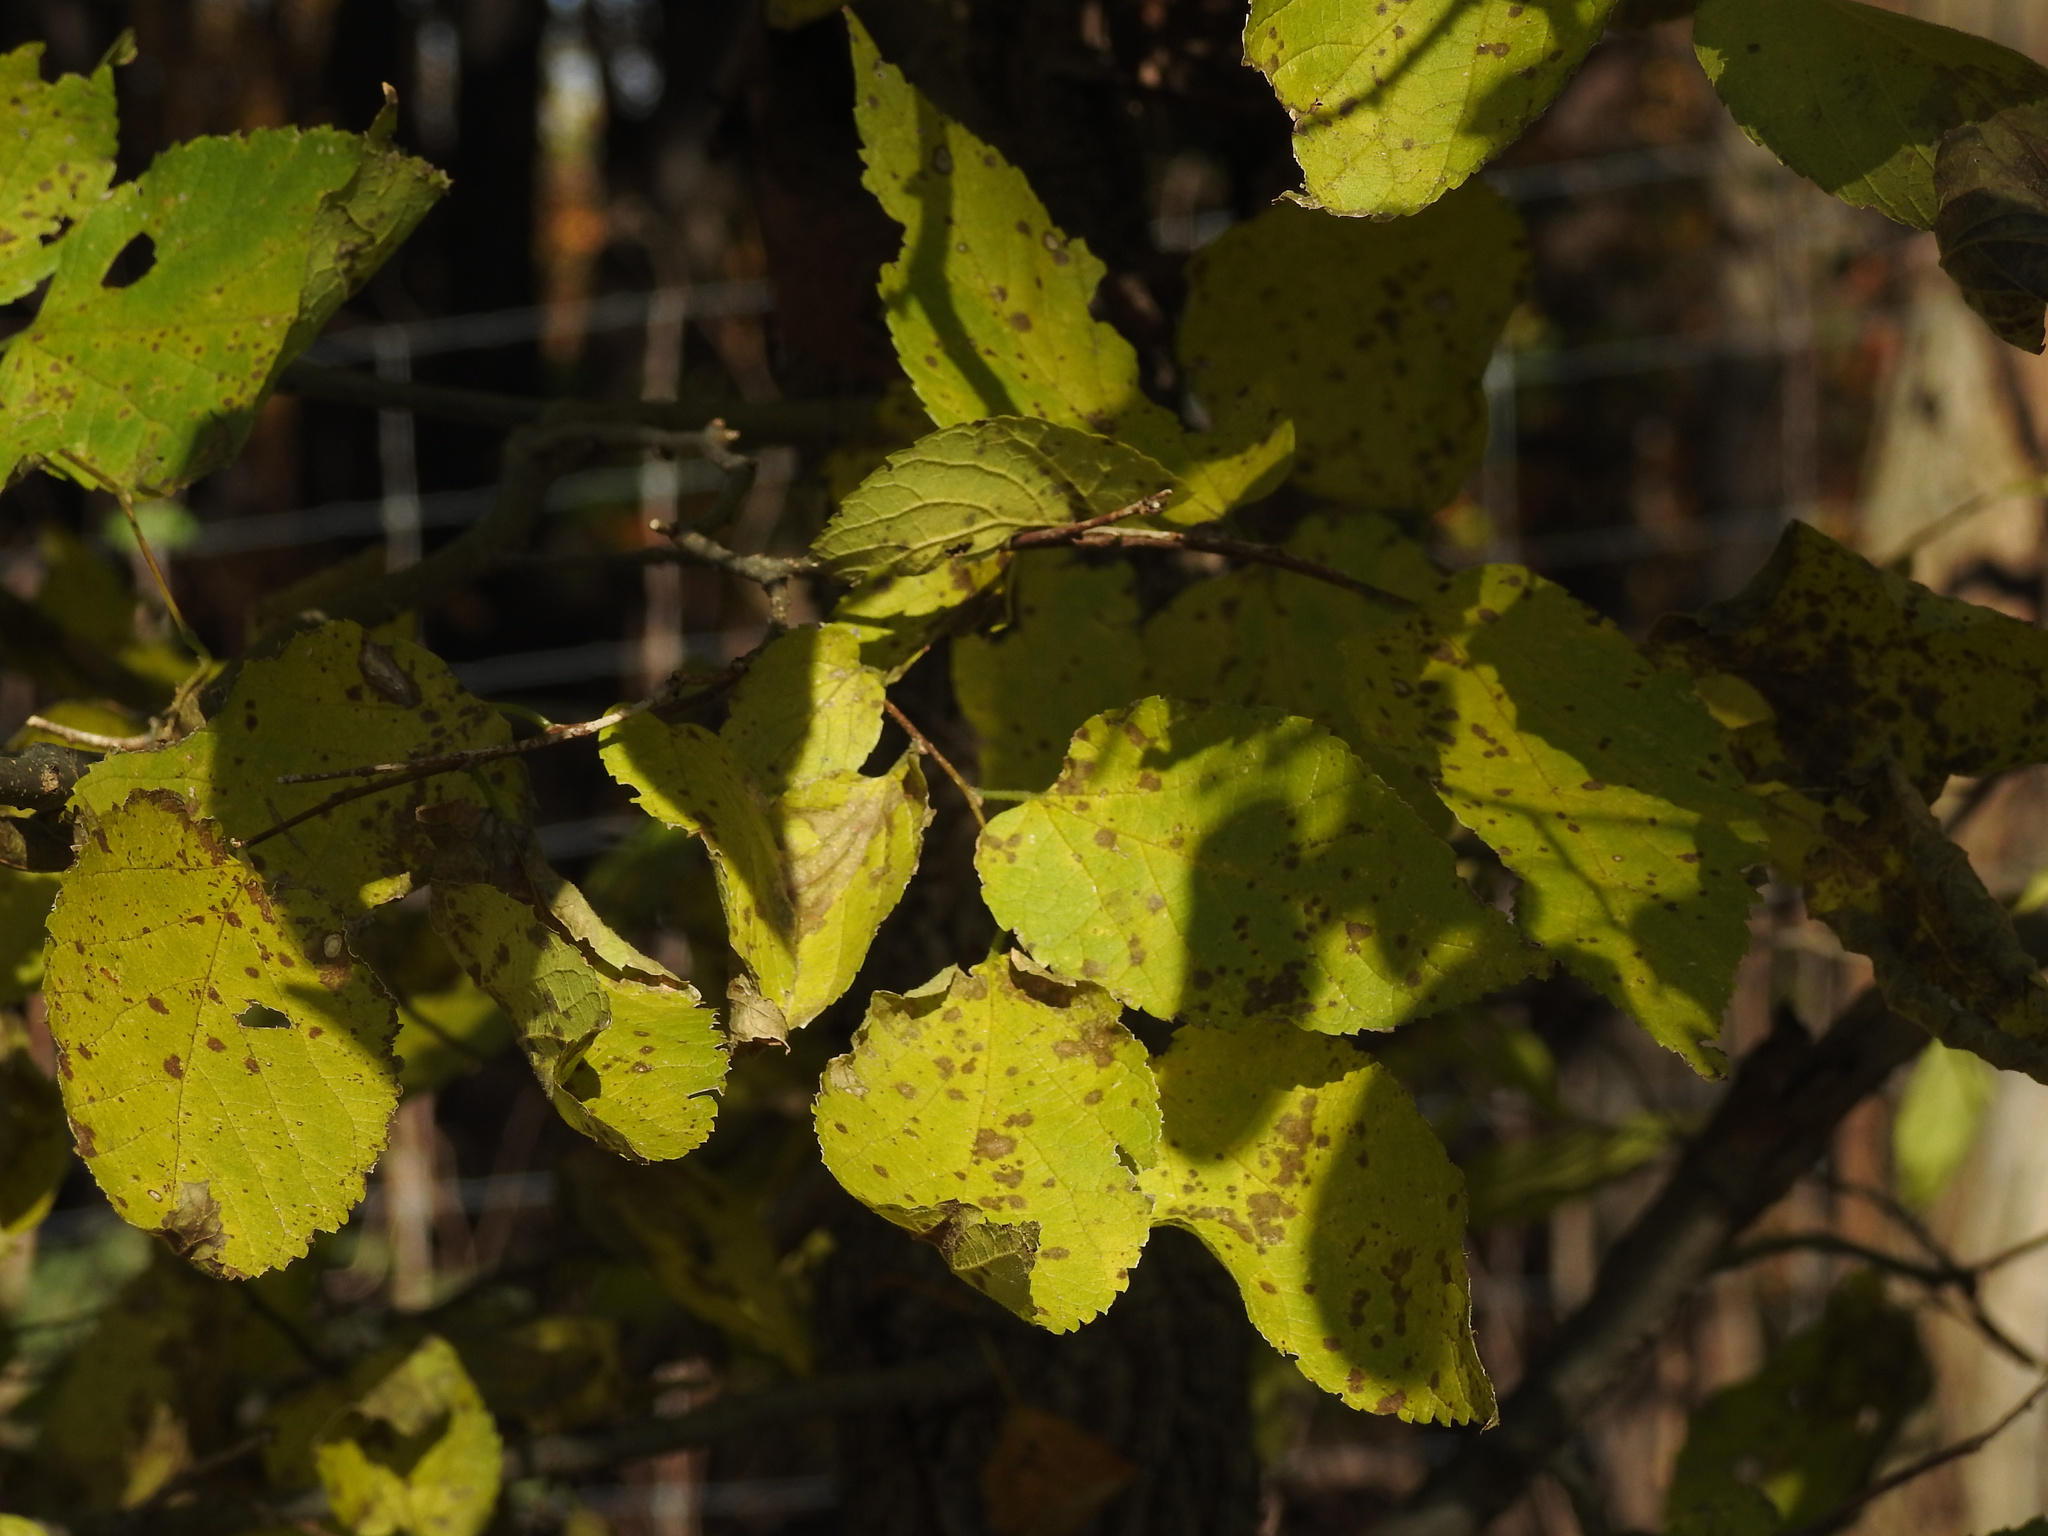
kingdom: Plantae
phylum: Tracheophyta
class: Magnoliopsida
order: Rosales
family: Cannabaceae
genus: Celtis
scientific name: Celtis occidentalis
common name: Common hackberry
